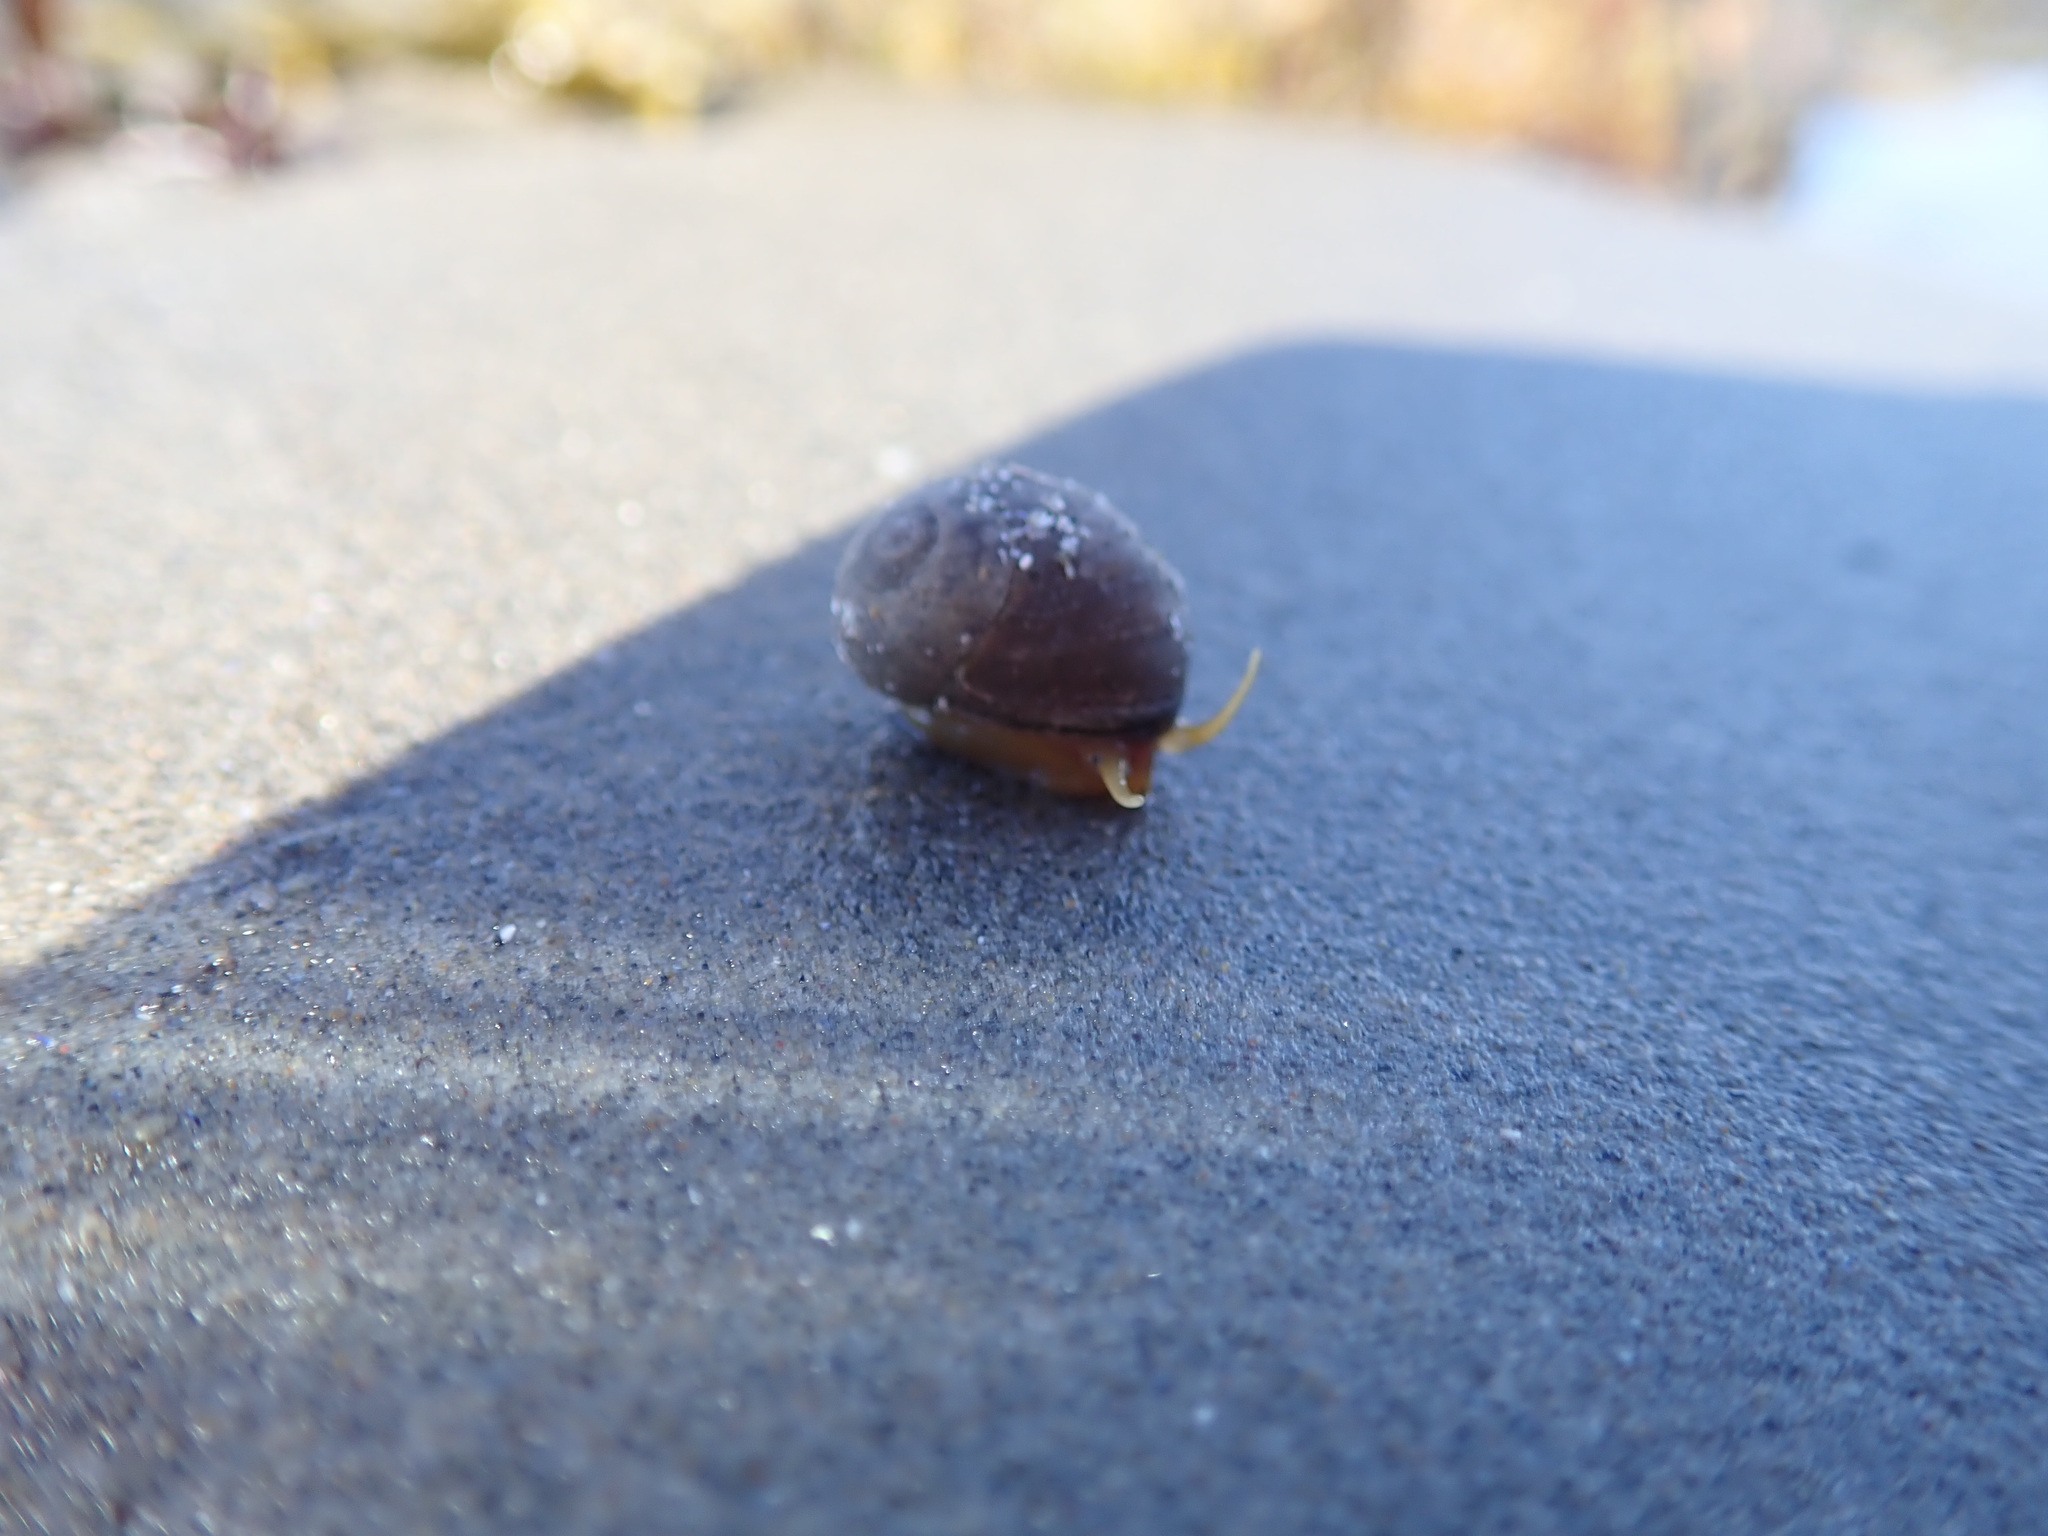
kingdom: Animalia
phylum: Mollusca
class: Gastropoda
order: Littorinimorpha
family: Littorinidae
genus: Littorina
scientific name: Littorina obtusata
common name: Flat periwinkle
